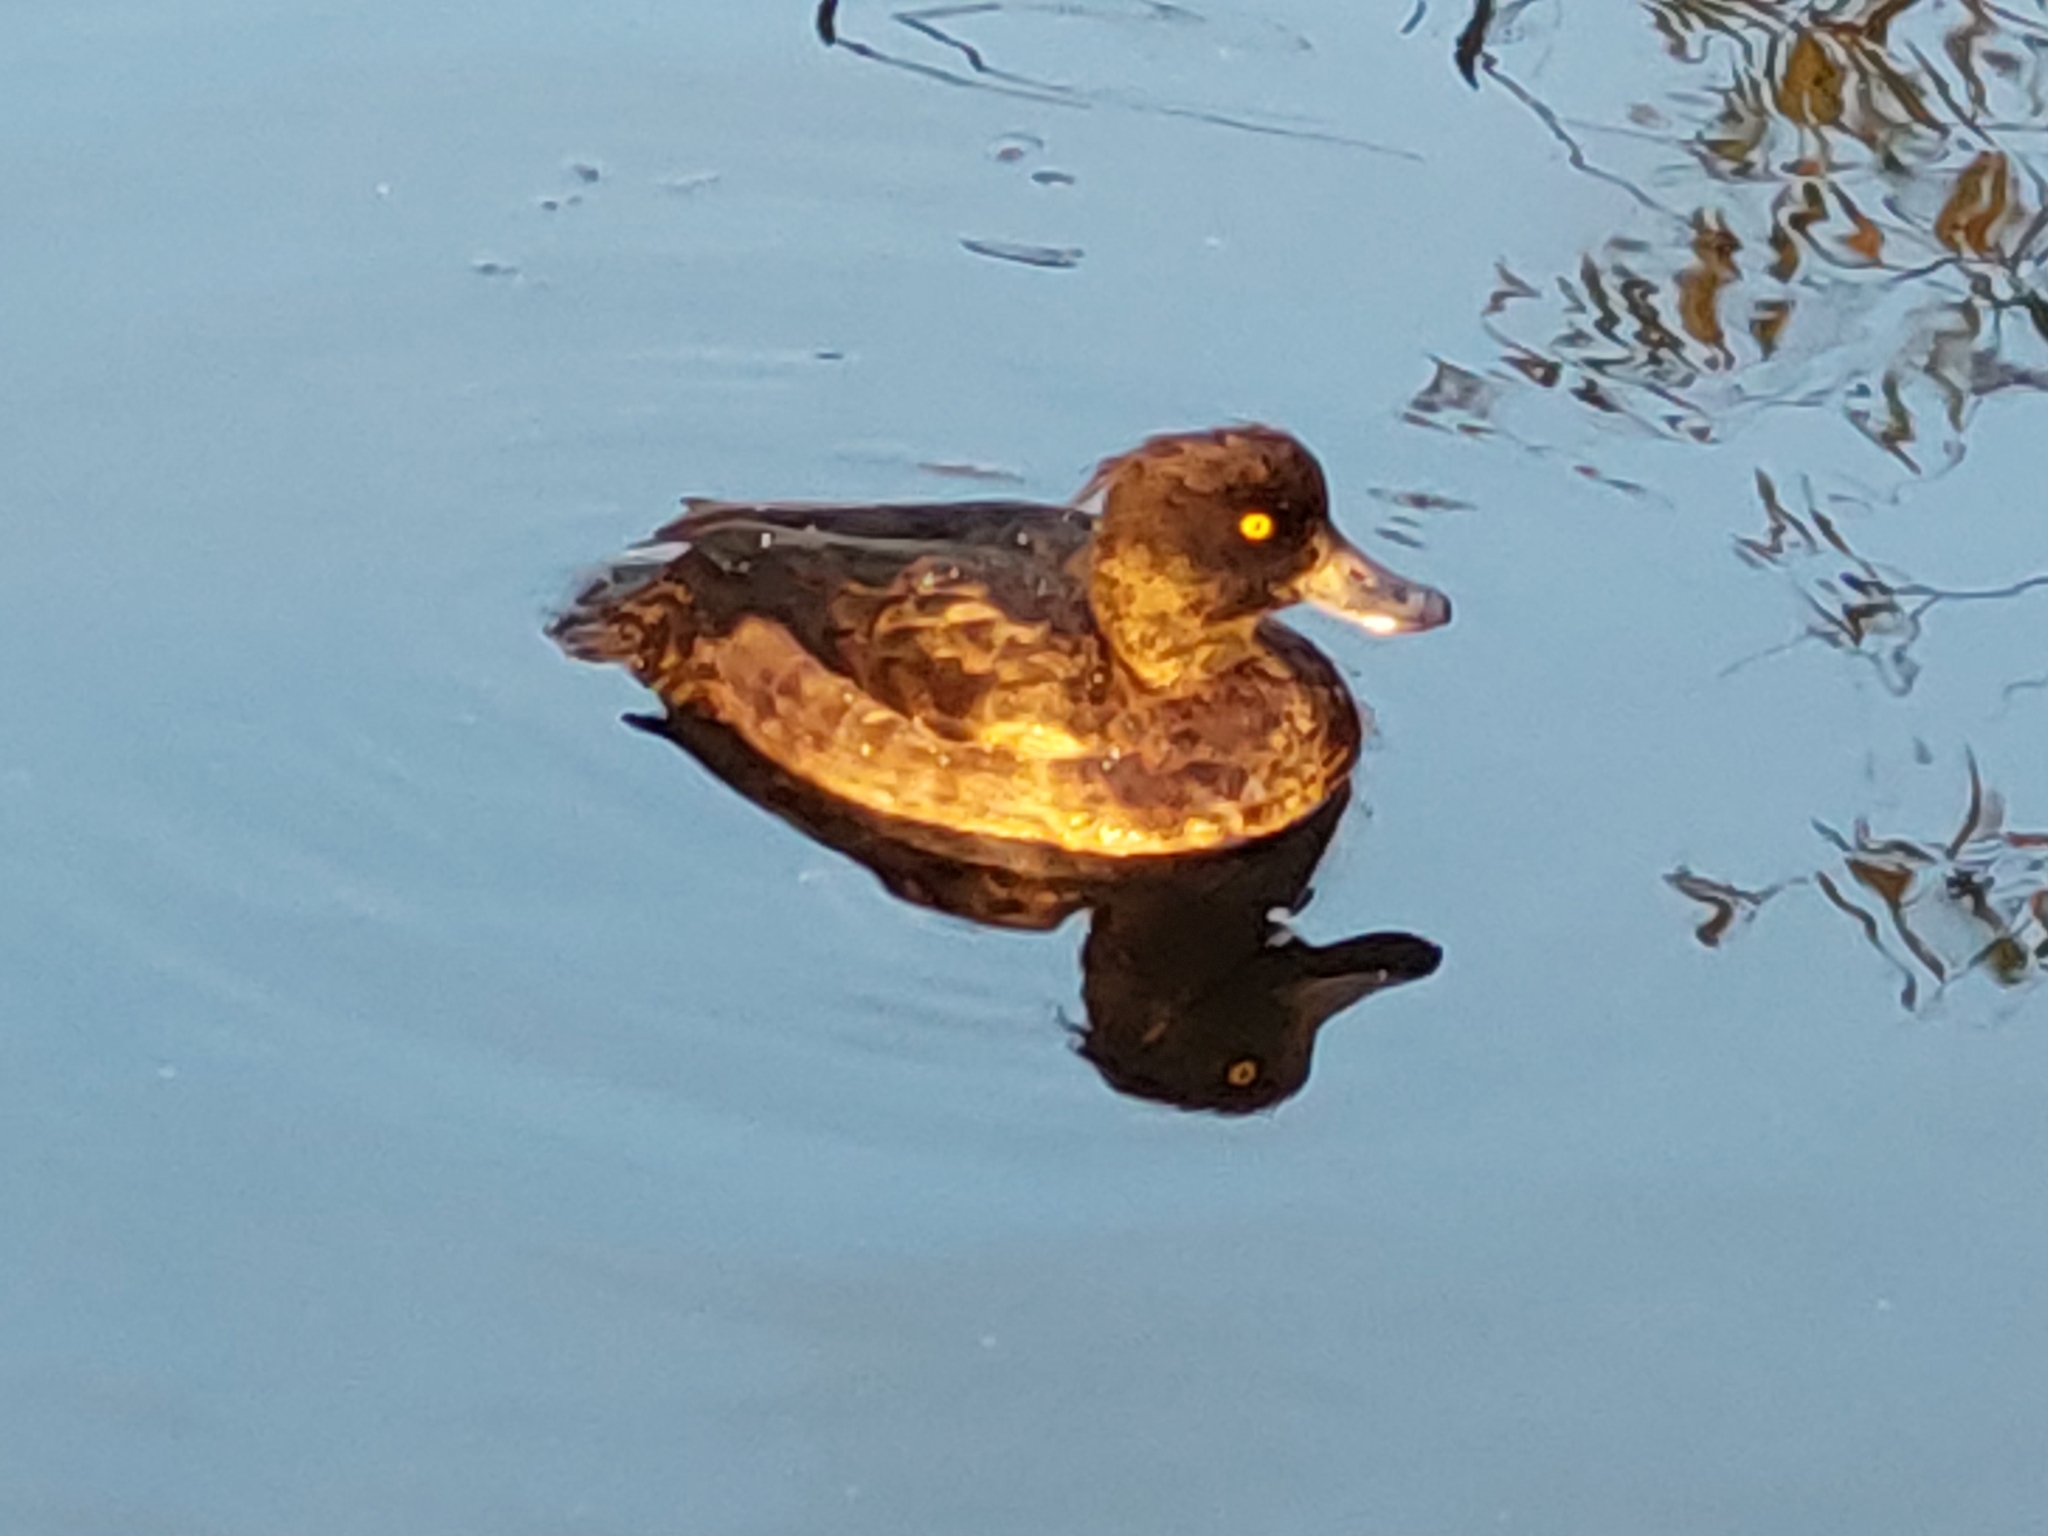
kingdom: Animalia
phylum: Chordata
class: Aves
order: Anseriformes
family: Anatidae
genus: Aythya
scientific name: Aythya fuligula
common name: Tufted duck
